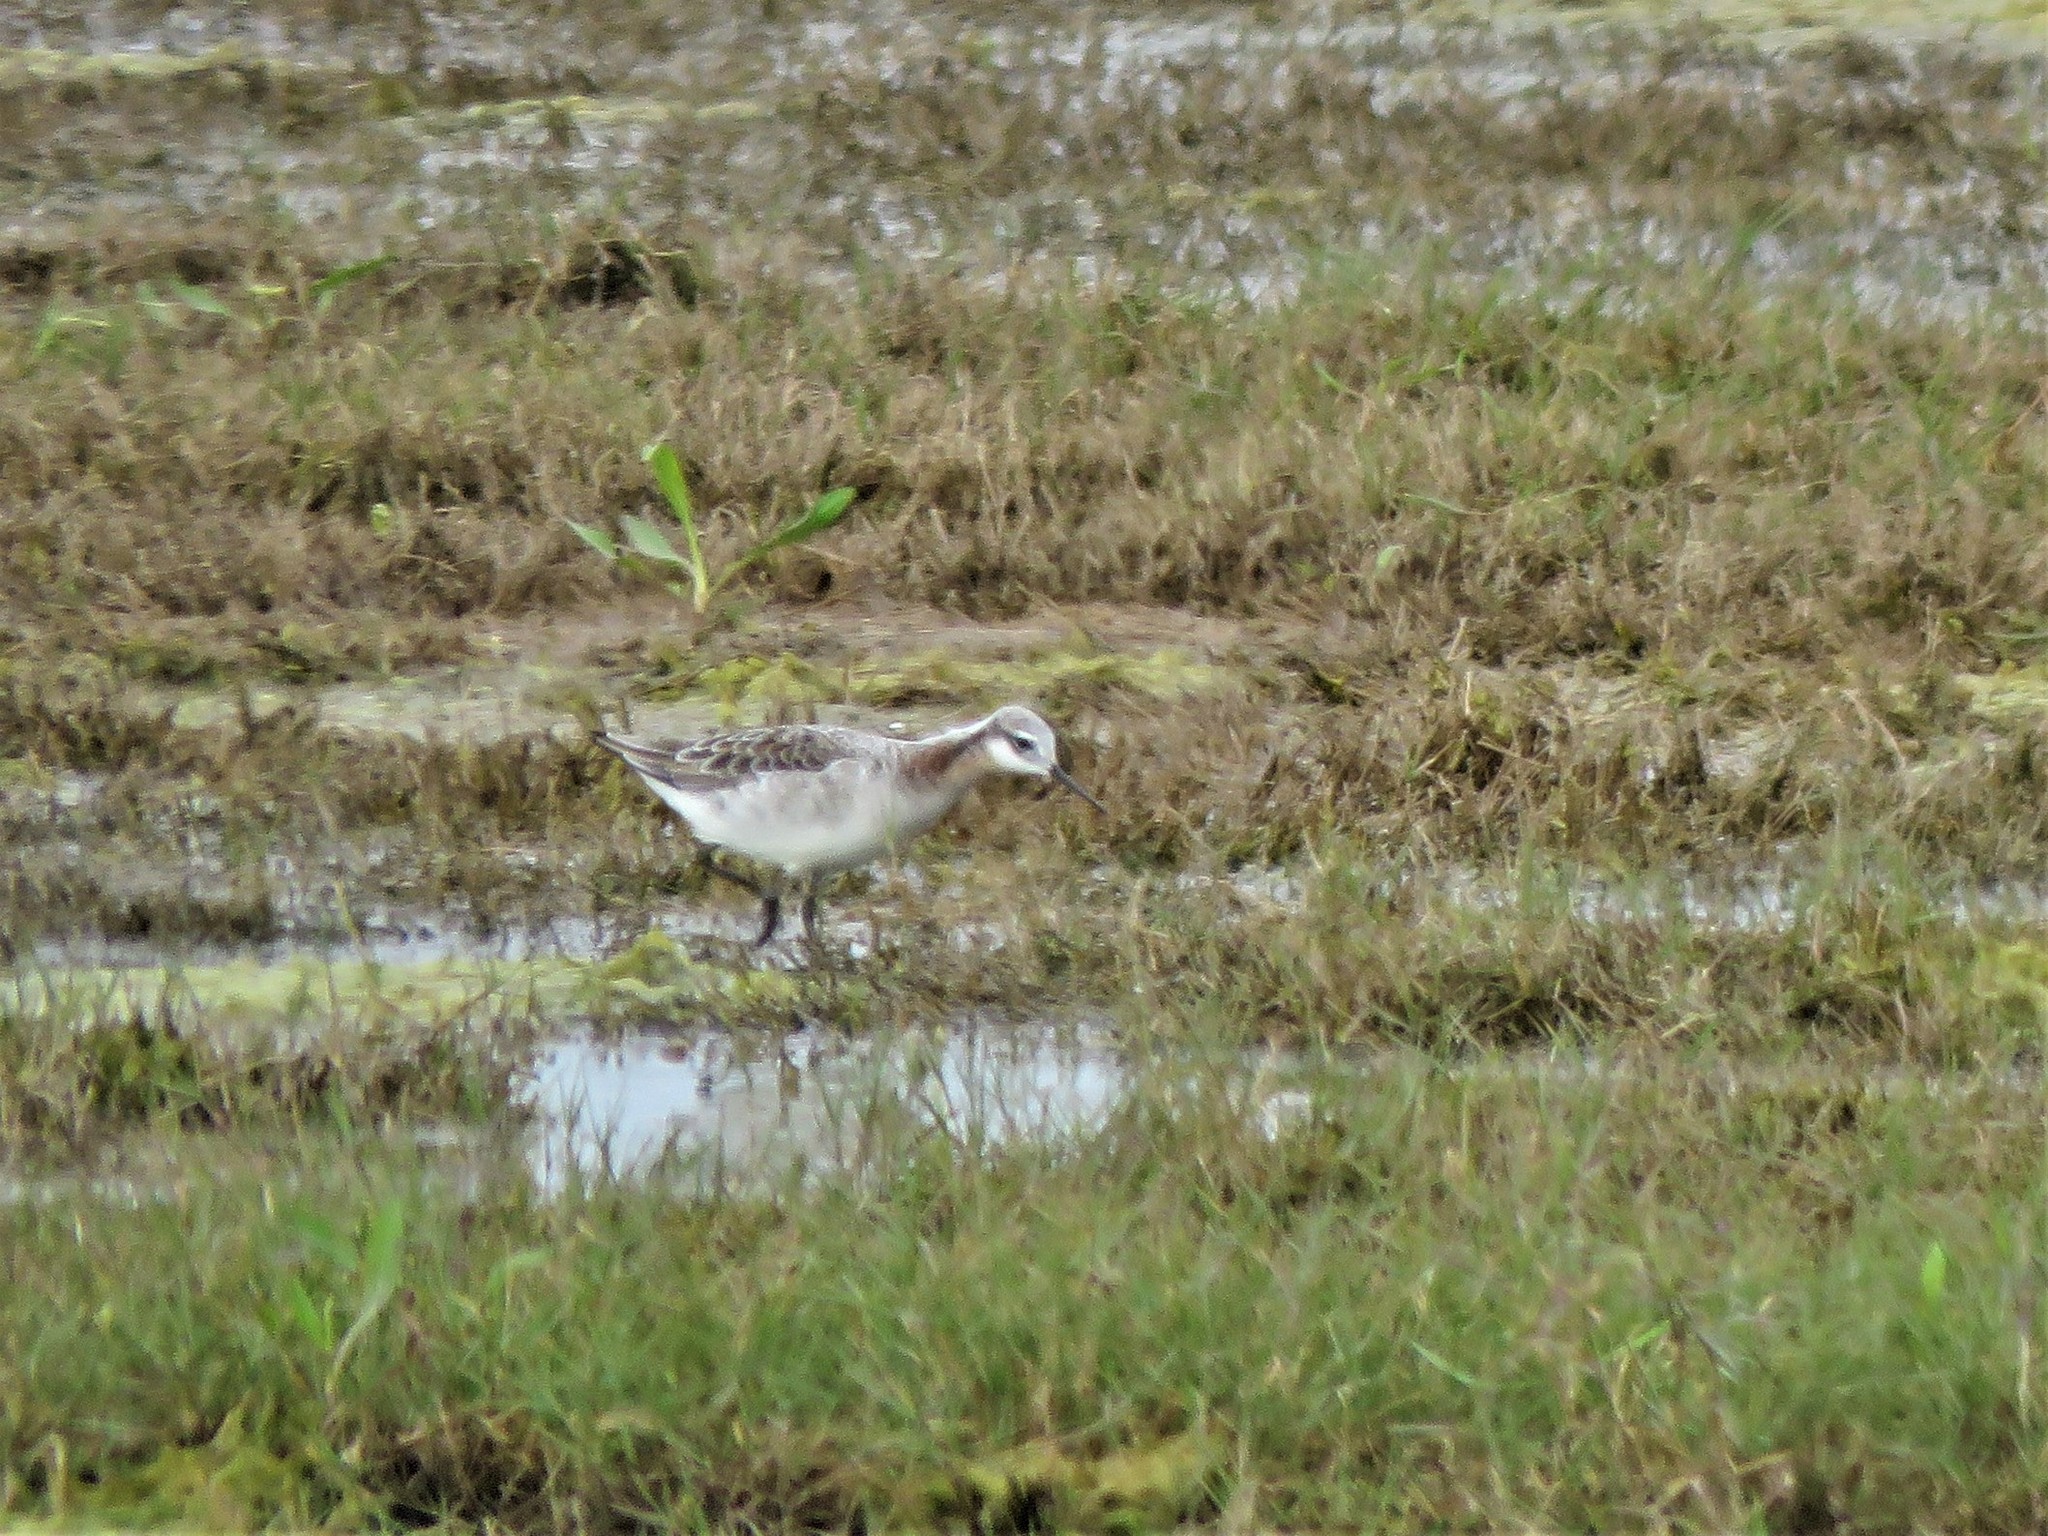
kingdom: Animalia
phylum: Chordata
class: Aves
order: Charadriiformes
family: Scolopacidae
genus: Phalaropus
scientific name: Phalaropus tricolor
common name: Wilson's phalarope
